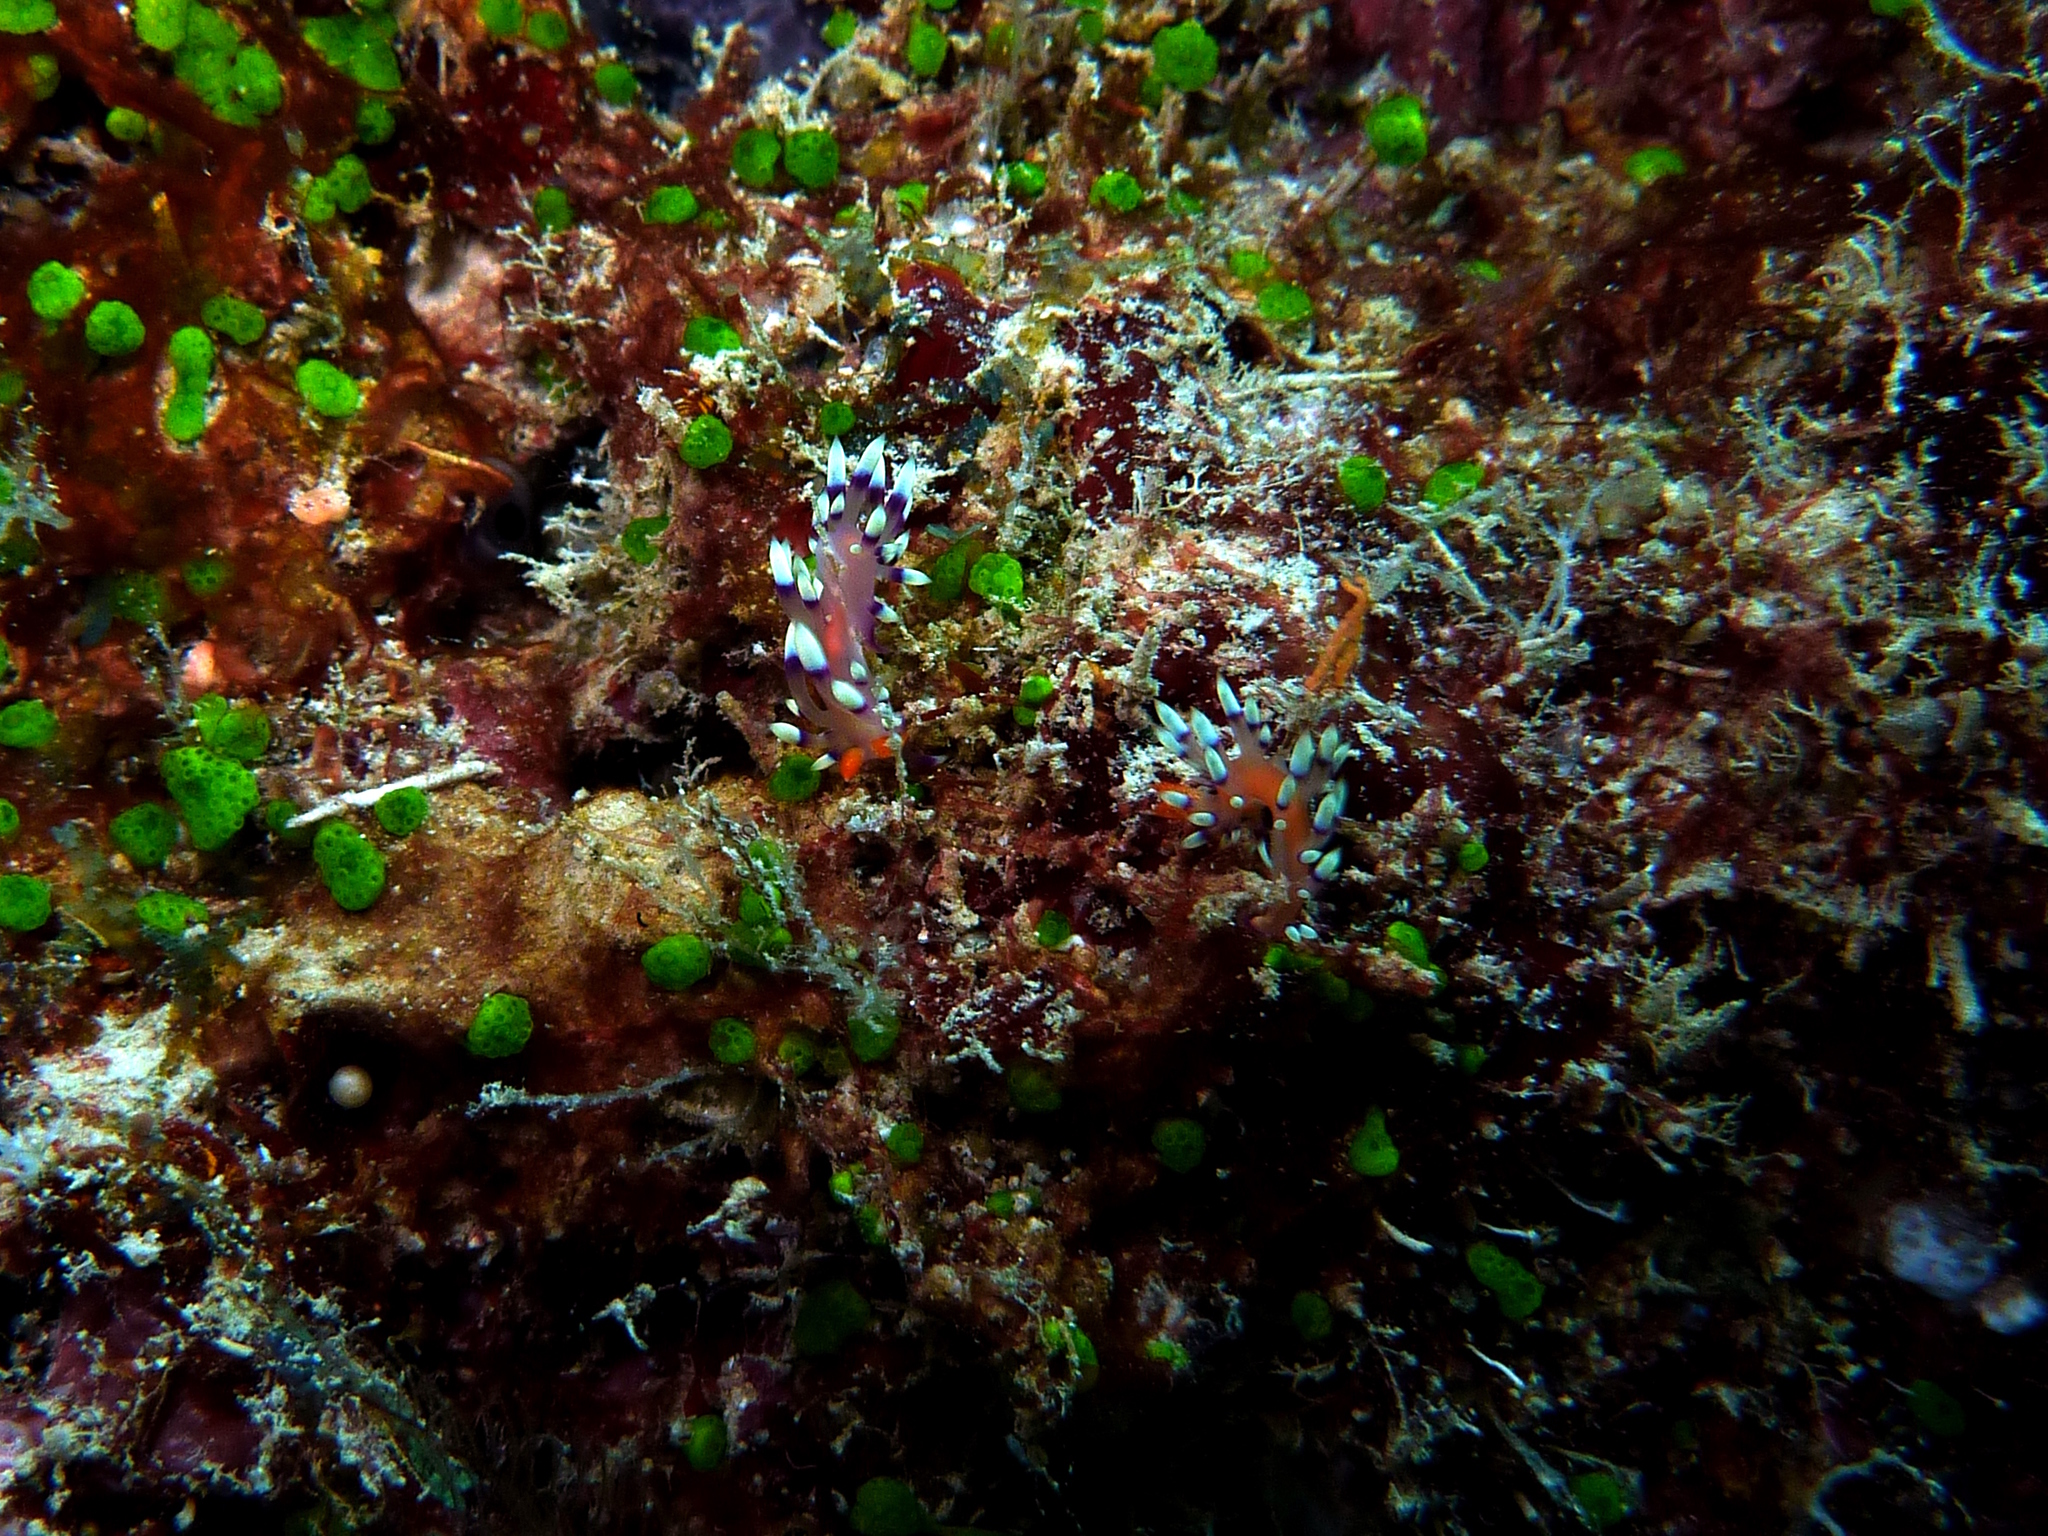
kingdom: Animalia
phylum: Mollusca
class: Gastropoda
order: Nudibranchia
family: Flabellinidae
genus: Coryphellina
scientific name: Coryphellina exoptata
